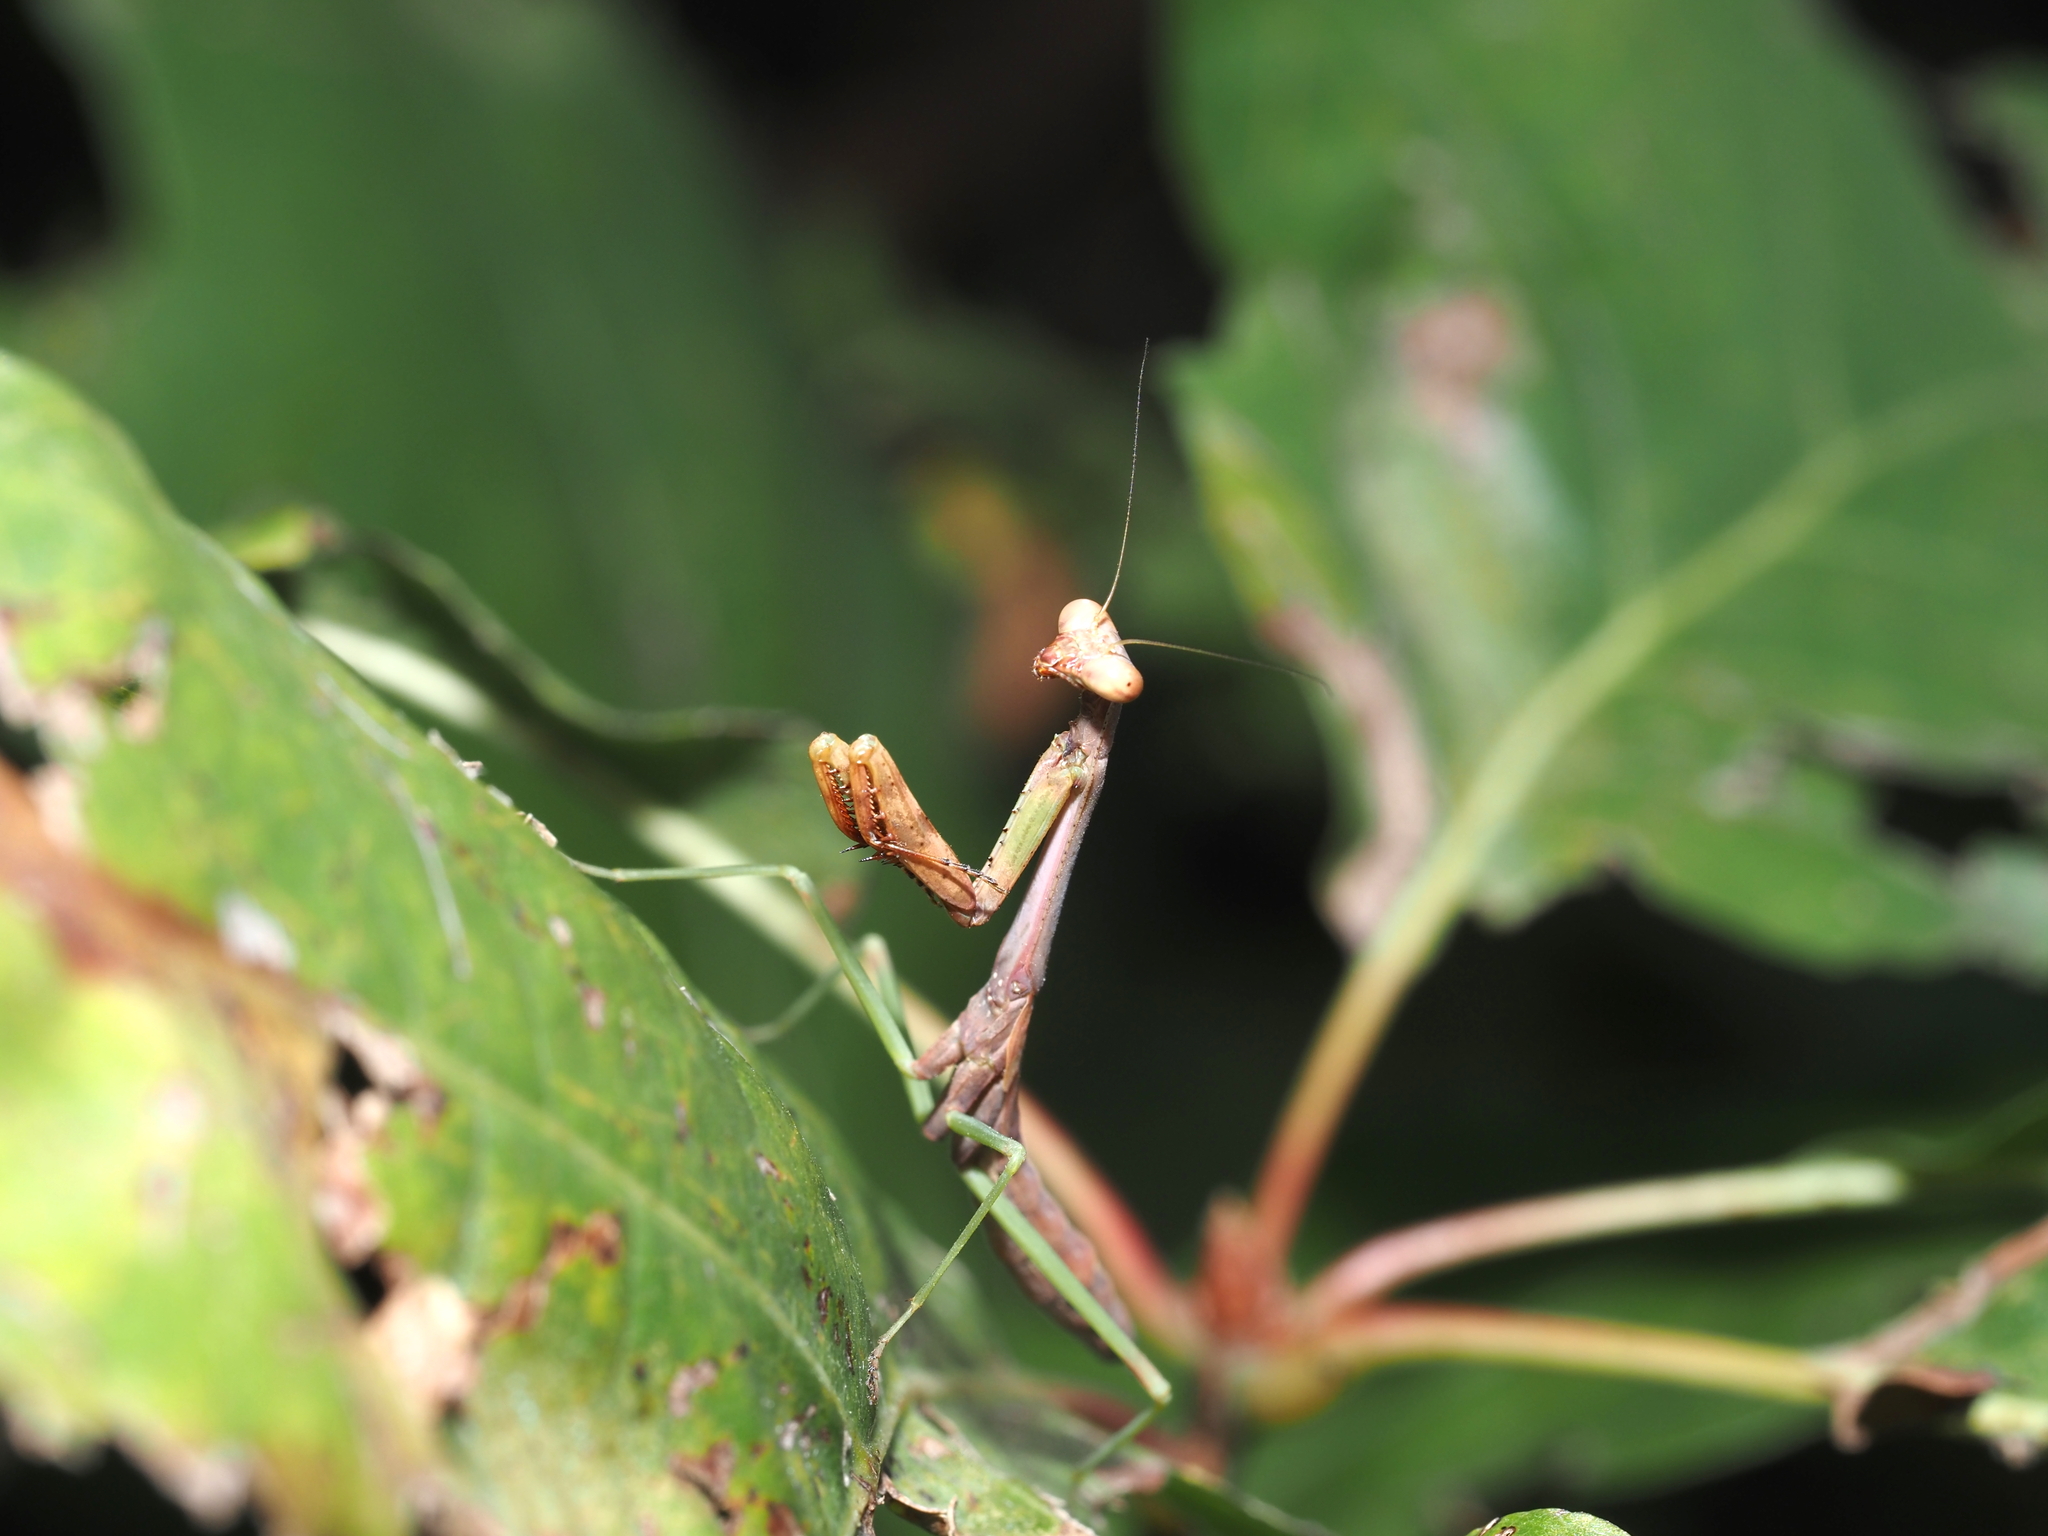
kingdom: Animalia
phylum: Arthropoda
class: Insecta
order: Mantodea
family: Mantidae
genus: Stagmomantis
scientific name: Stagmomantis carolina
